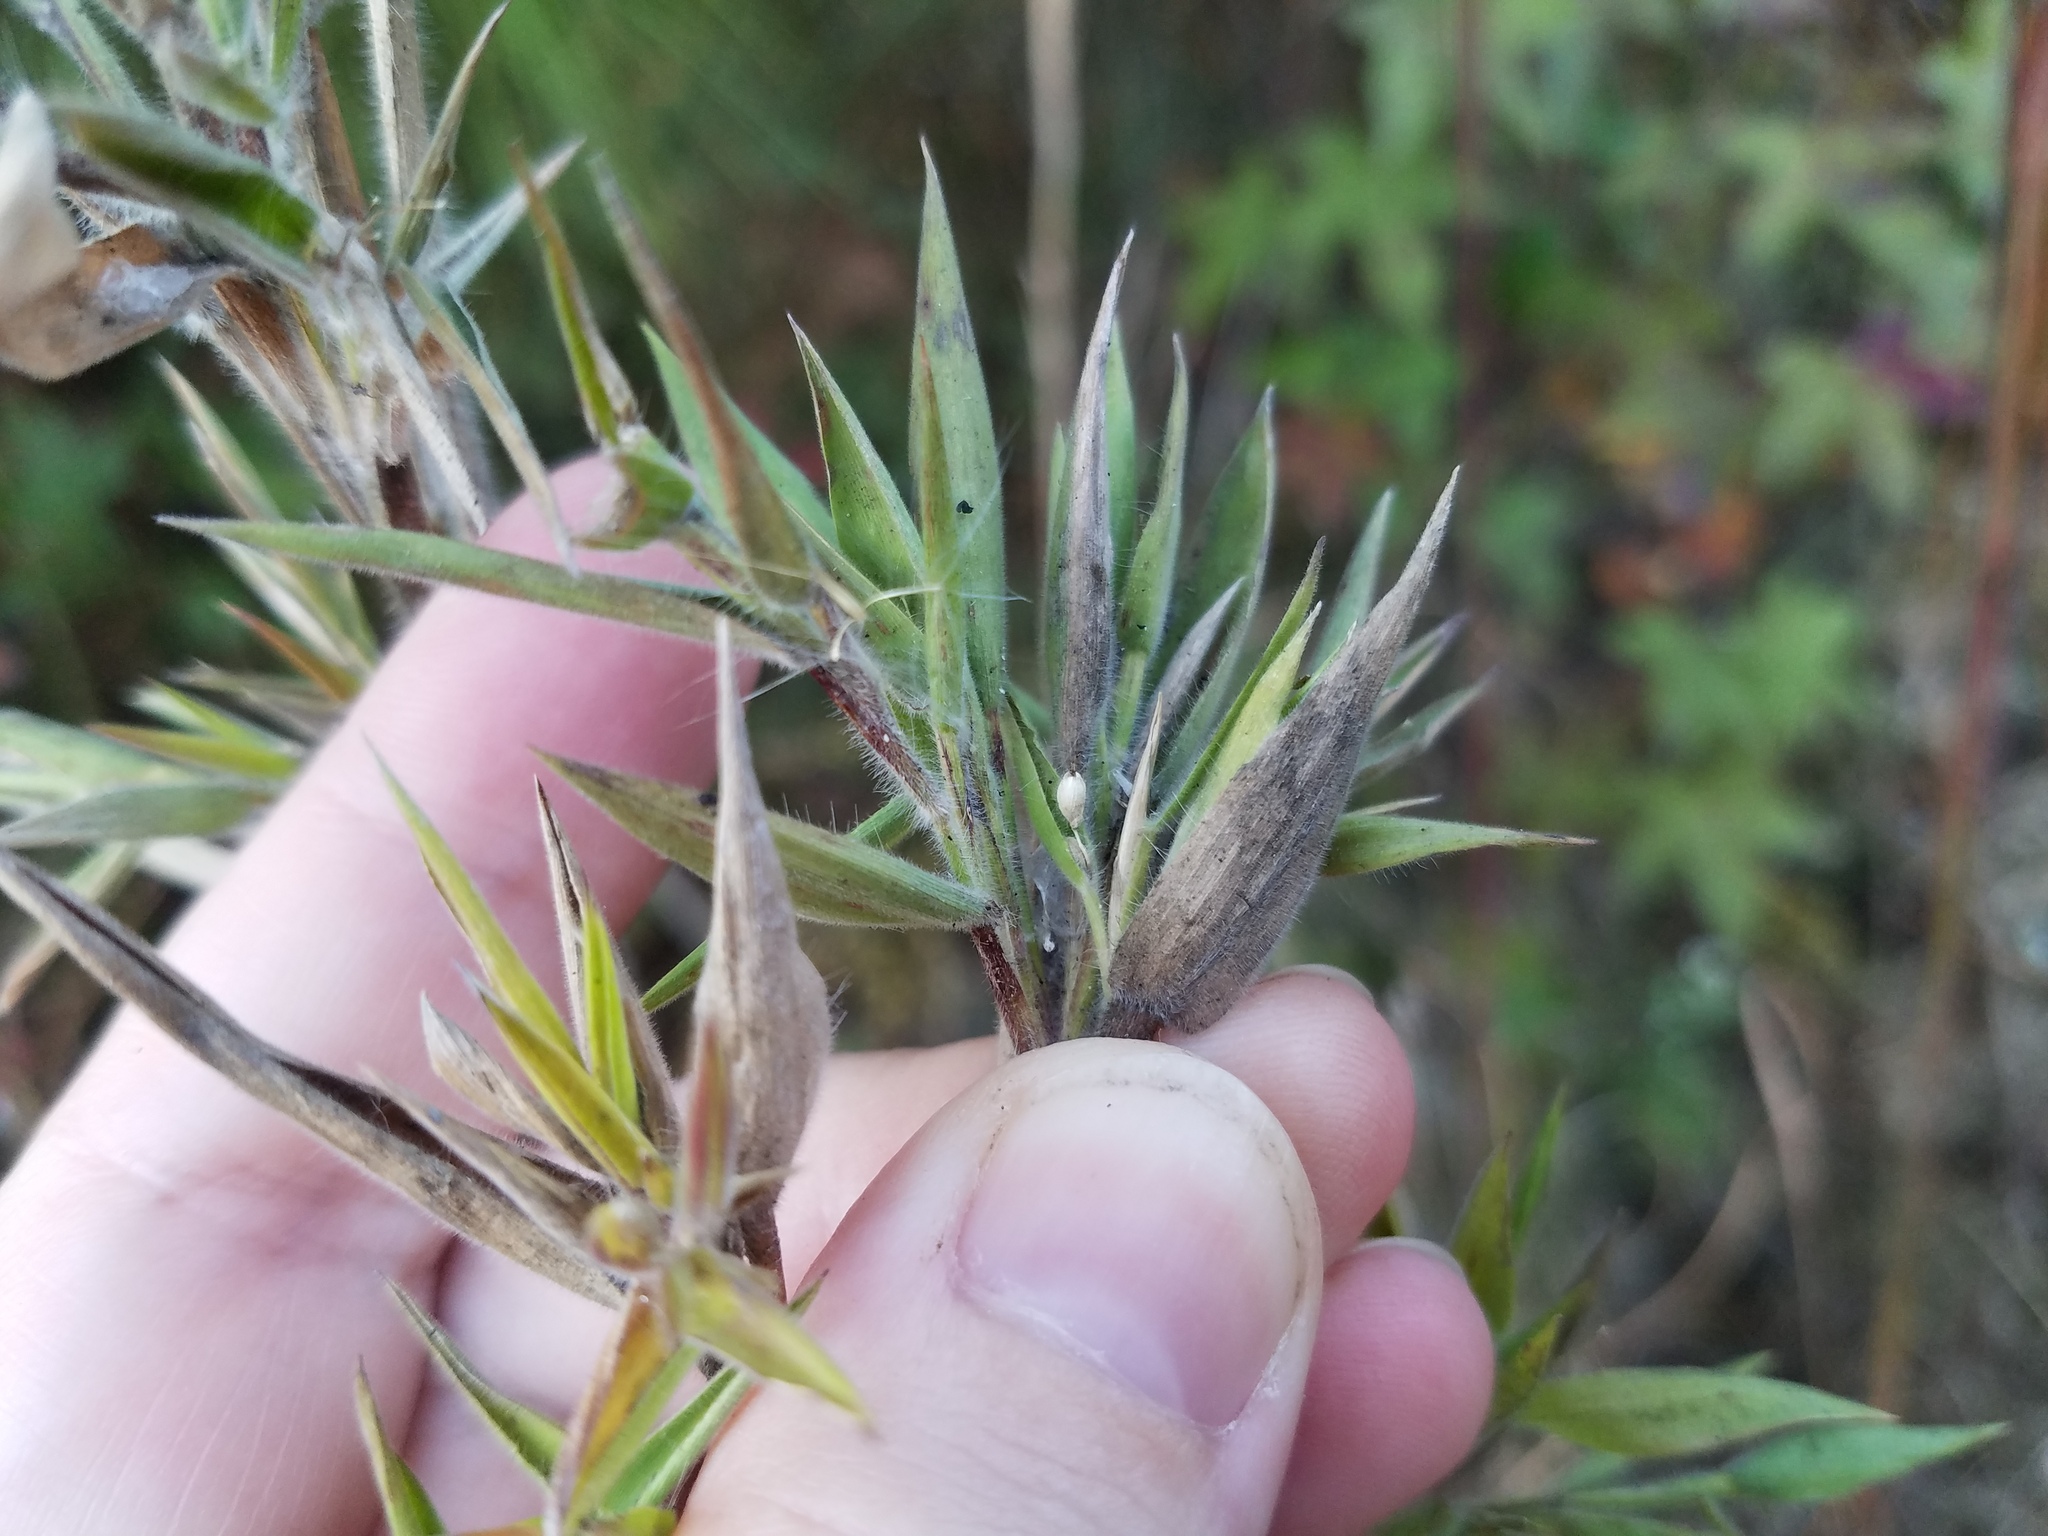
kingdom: Plantae
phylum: Tracheophyta
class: Liliopsida
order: Poales
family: Poaceae
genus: Dichanthelium
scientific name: Dichanthelium scoparium
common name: Velvety panic grass
